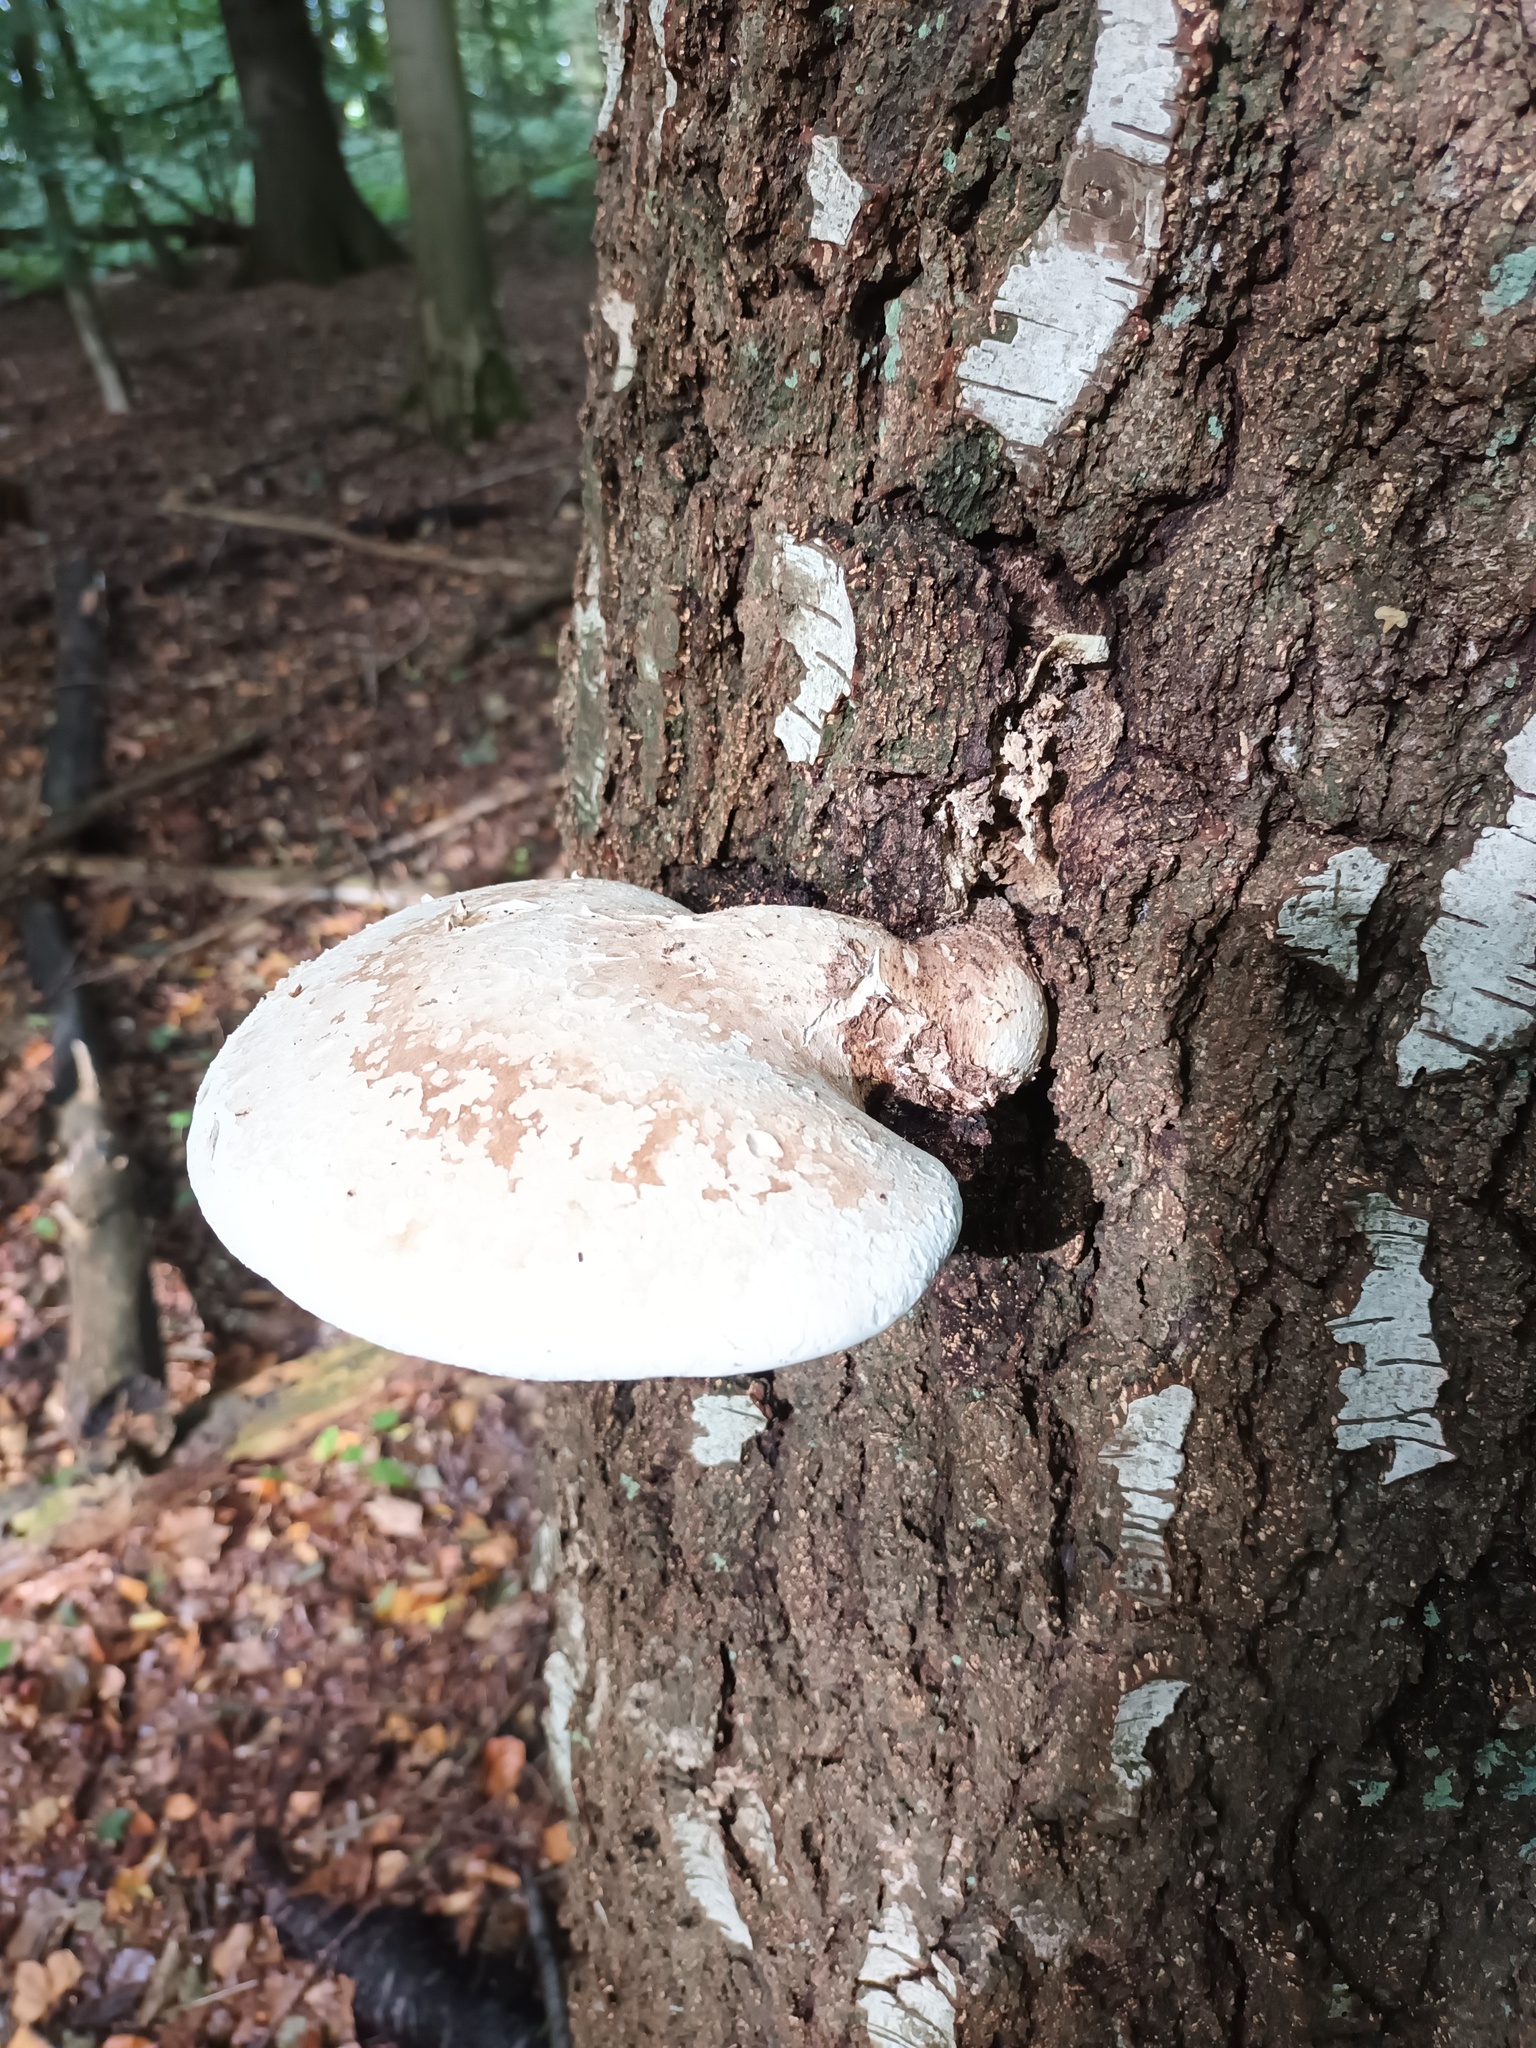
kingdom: Fungi
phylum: Basidiomycota
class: Agaricomycetes
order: Polyporales
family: Fomitopsidaceae
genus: Fomitopsis
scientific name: Fomitopsis betulina
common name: Birch polypore
